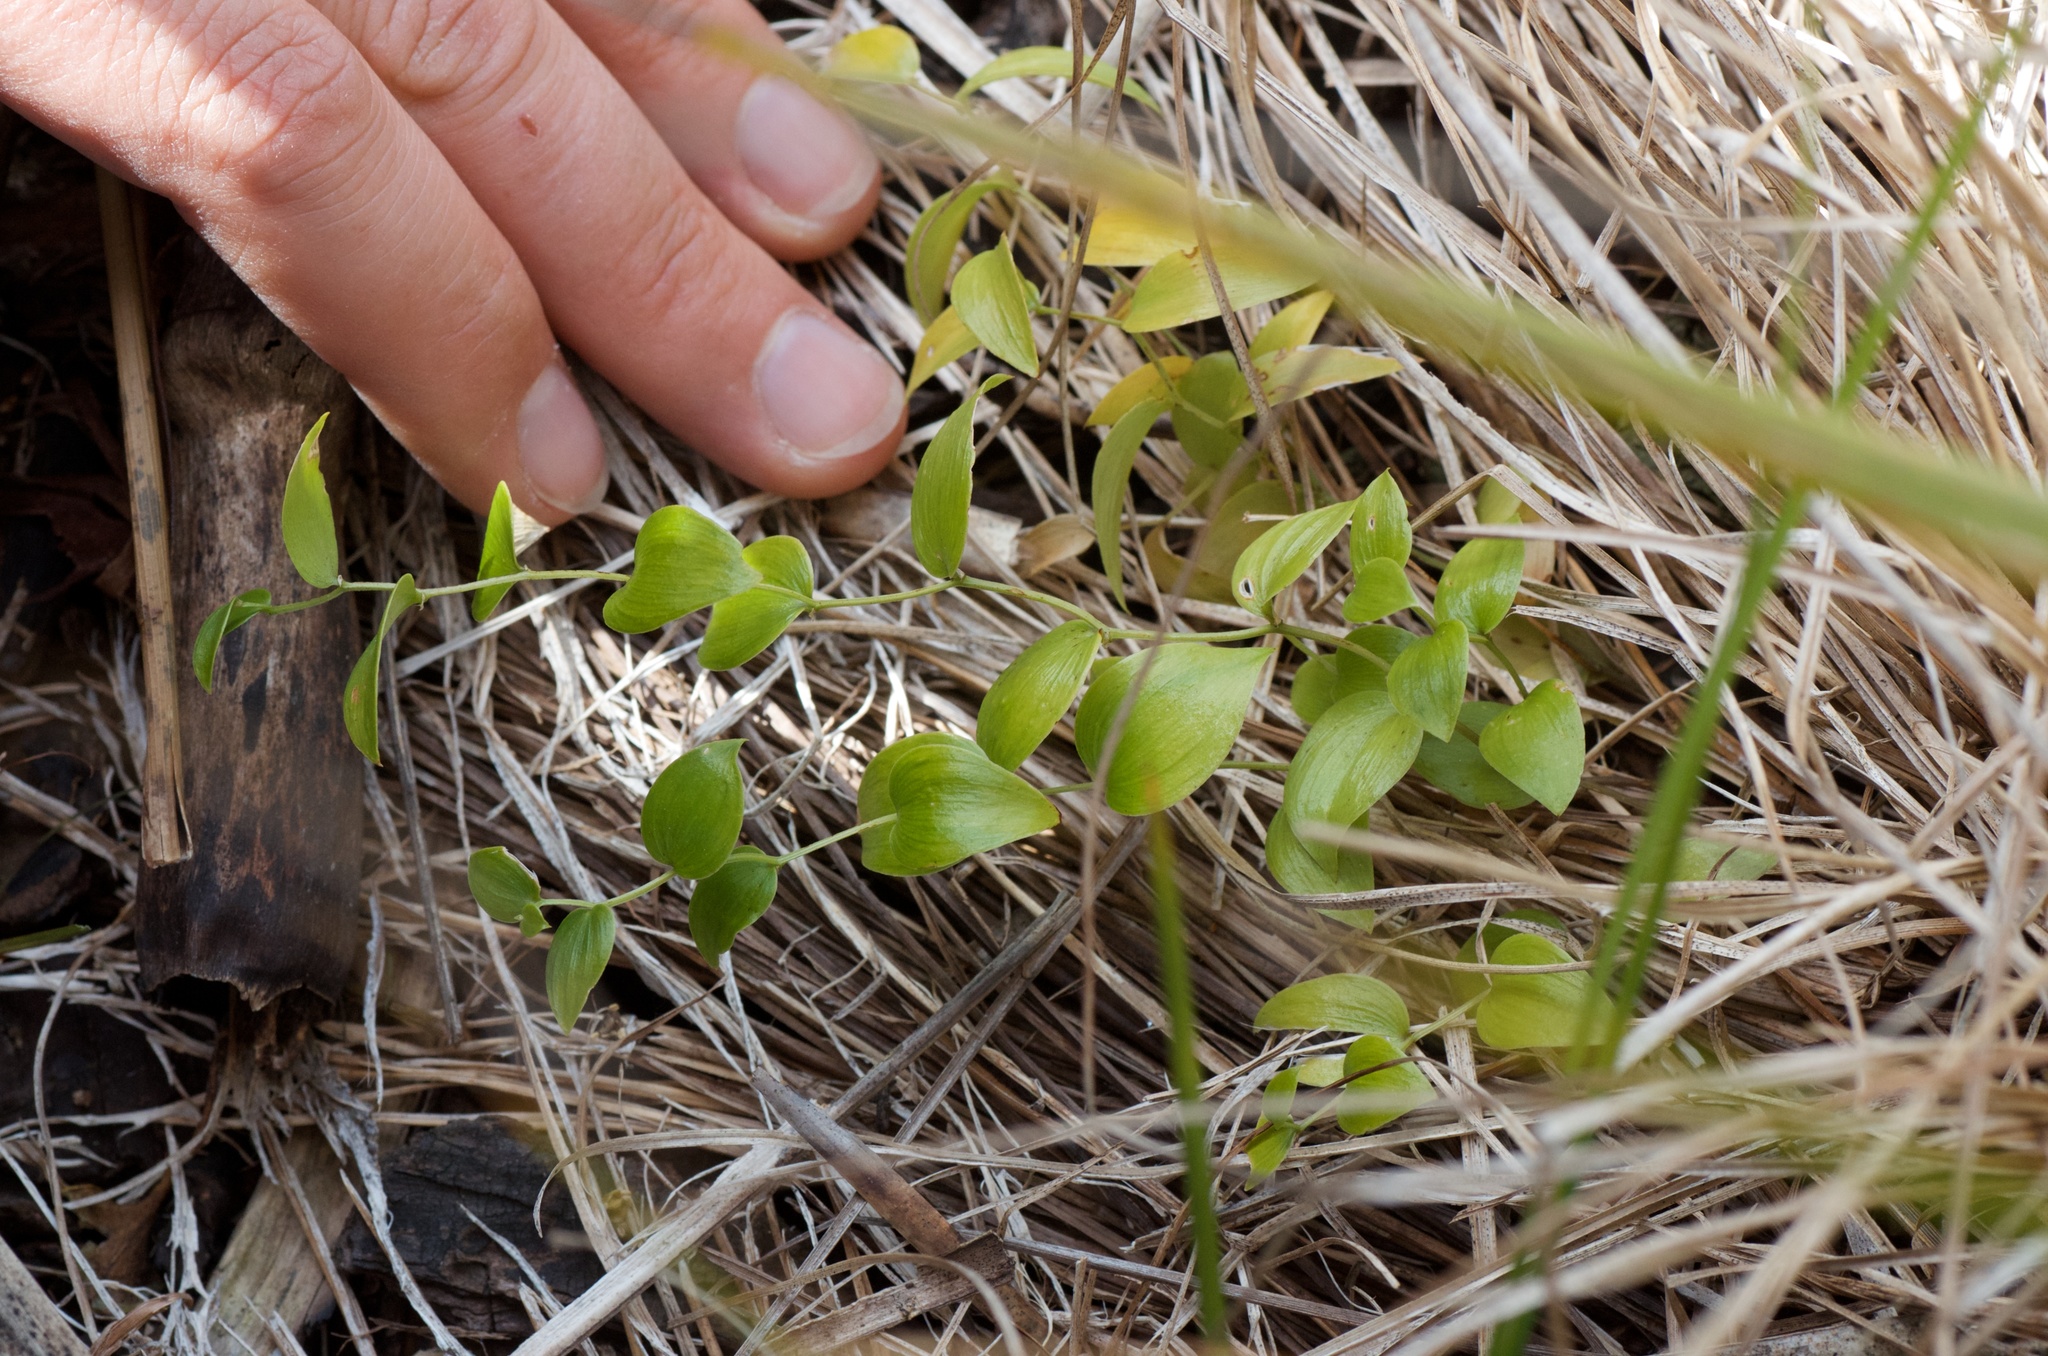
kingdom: Plantae
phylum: Tracheophyta
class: Liliopsida
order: Asparagales
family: Asparagaceae
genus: Asparagus
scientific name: Asparagus asparagoides
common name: African asparagus fern
